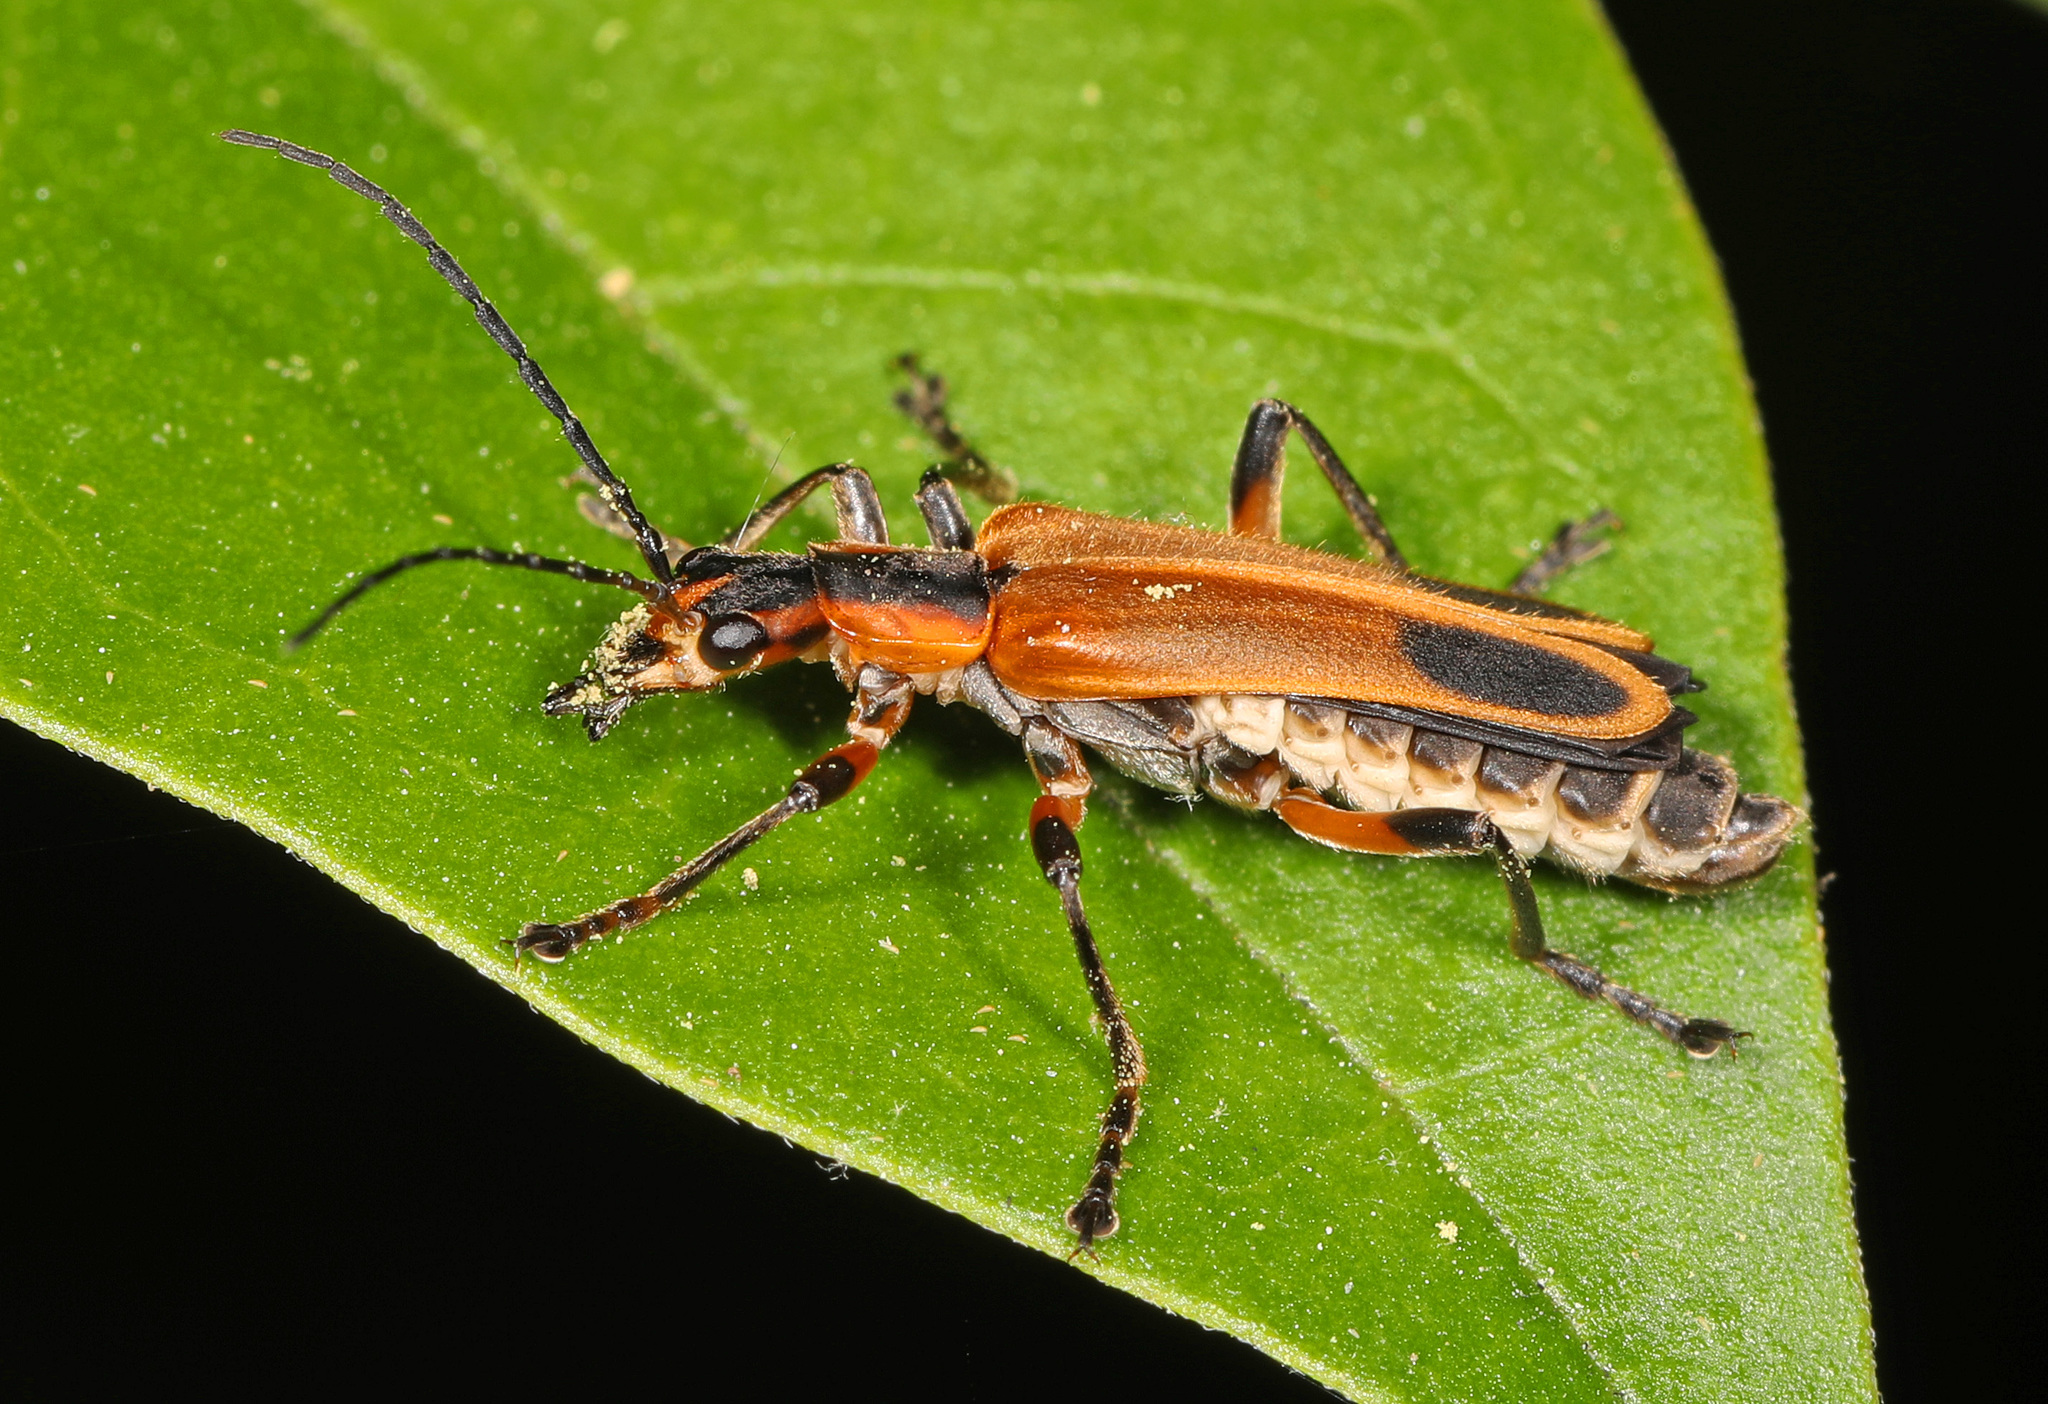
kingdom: Animalia
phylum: Arthropoda
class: Insecta
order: Coleoptera
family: Cantharidae
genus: Chauliognathus
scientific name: Chauliognathus marginatus
